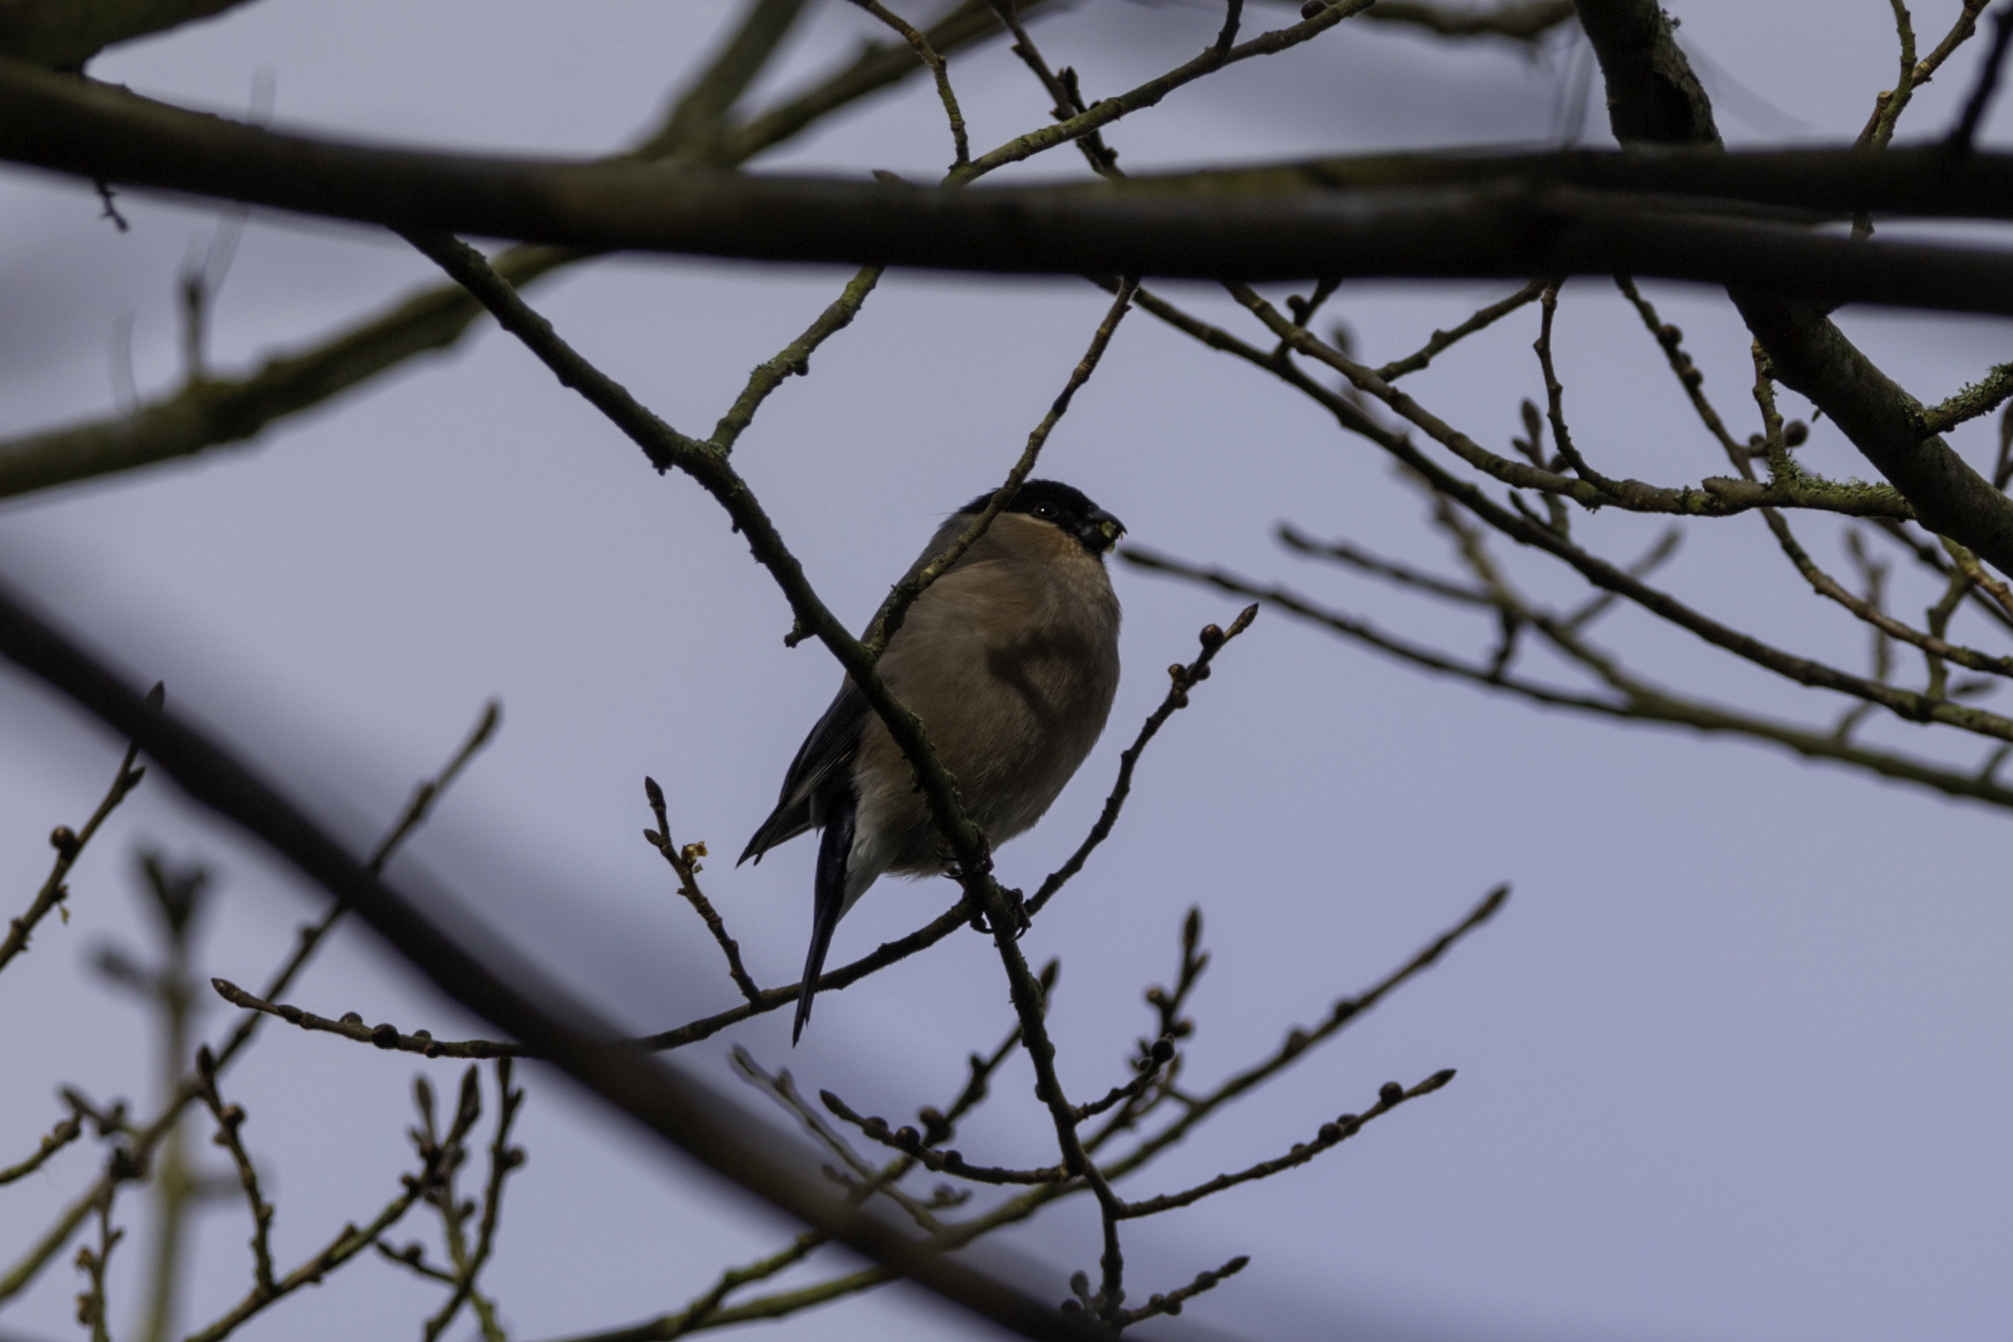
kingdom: Animalia
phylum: Chordata
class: Aves
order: Passeriformes
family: Fringillidae
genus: Pyrrhula
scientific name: Pyrrhula pyrrhula
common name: Eurasian bullfinch
